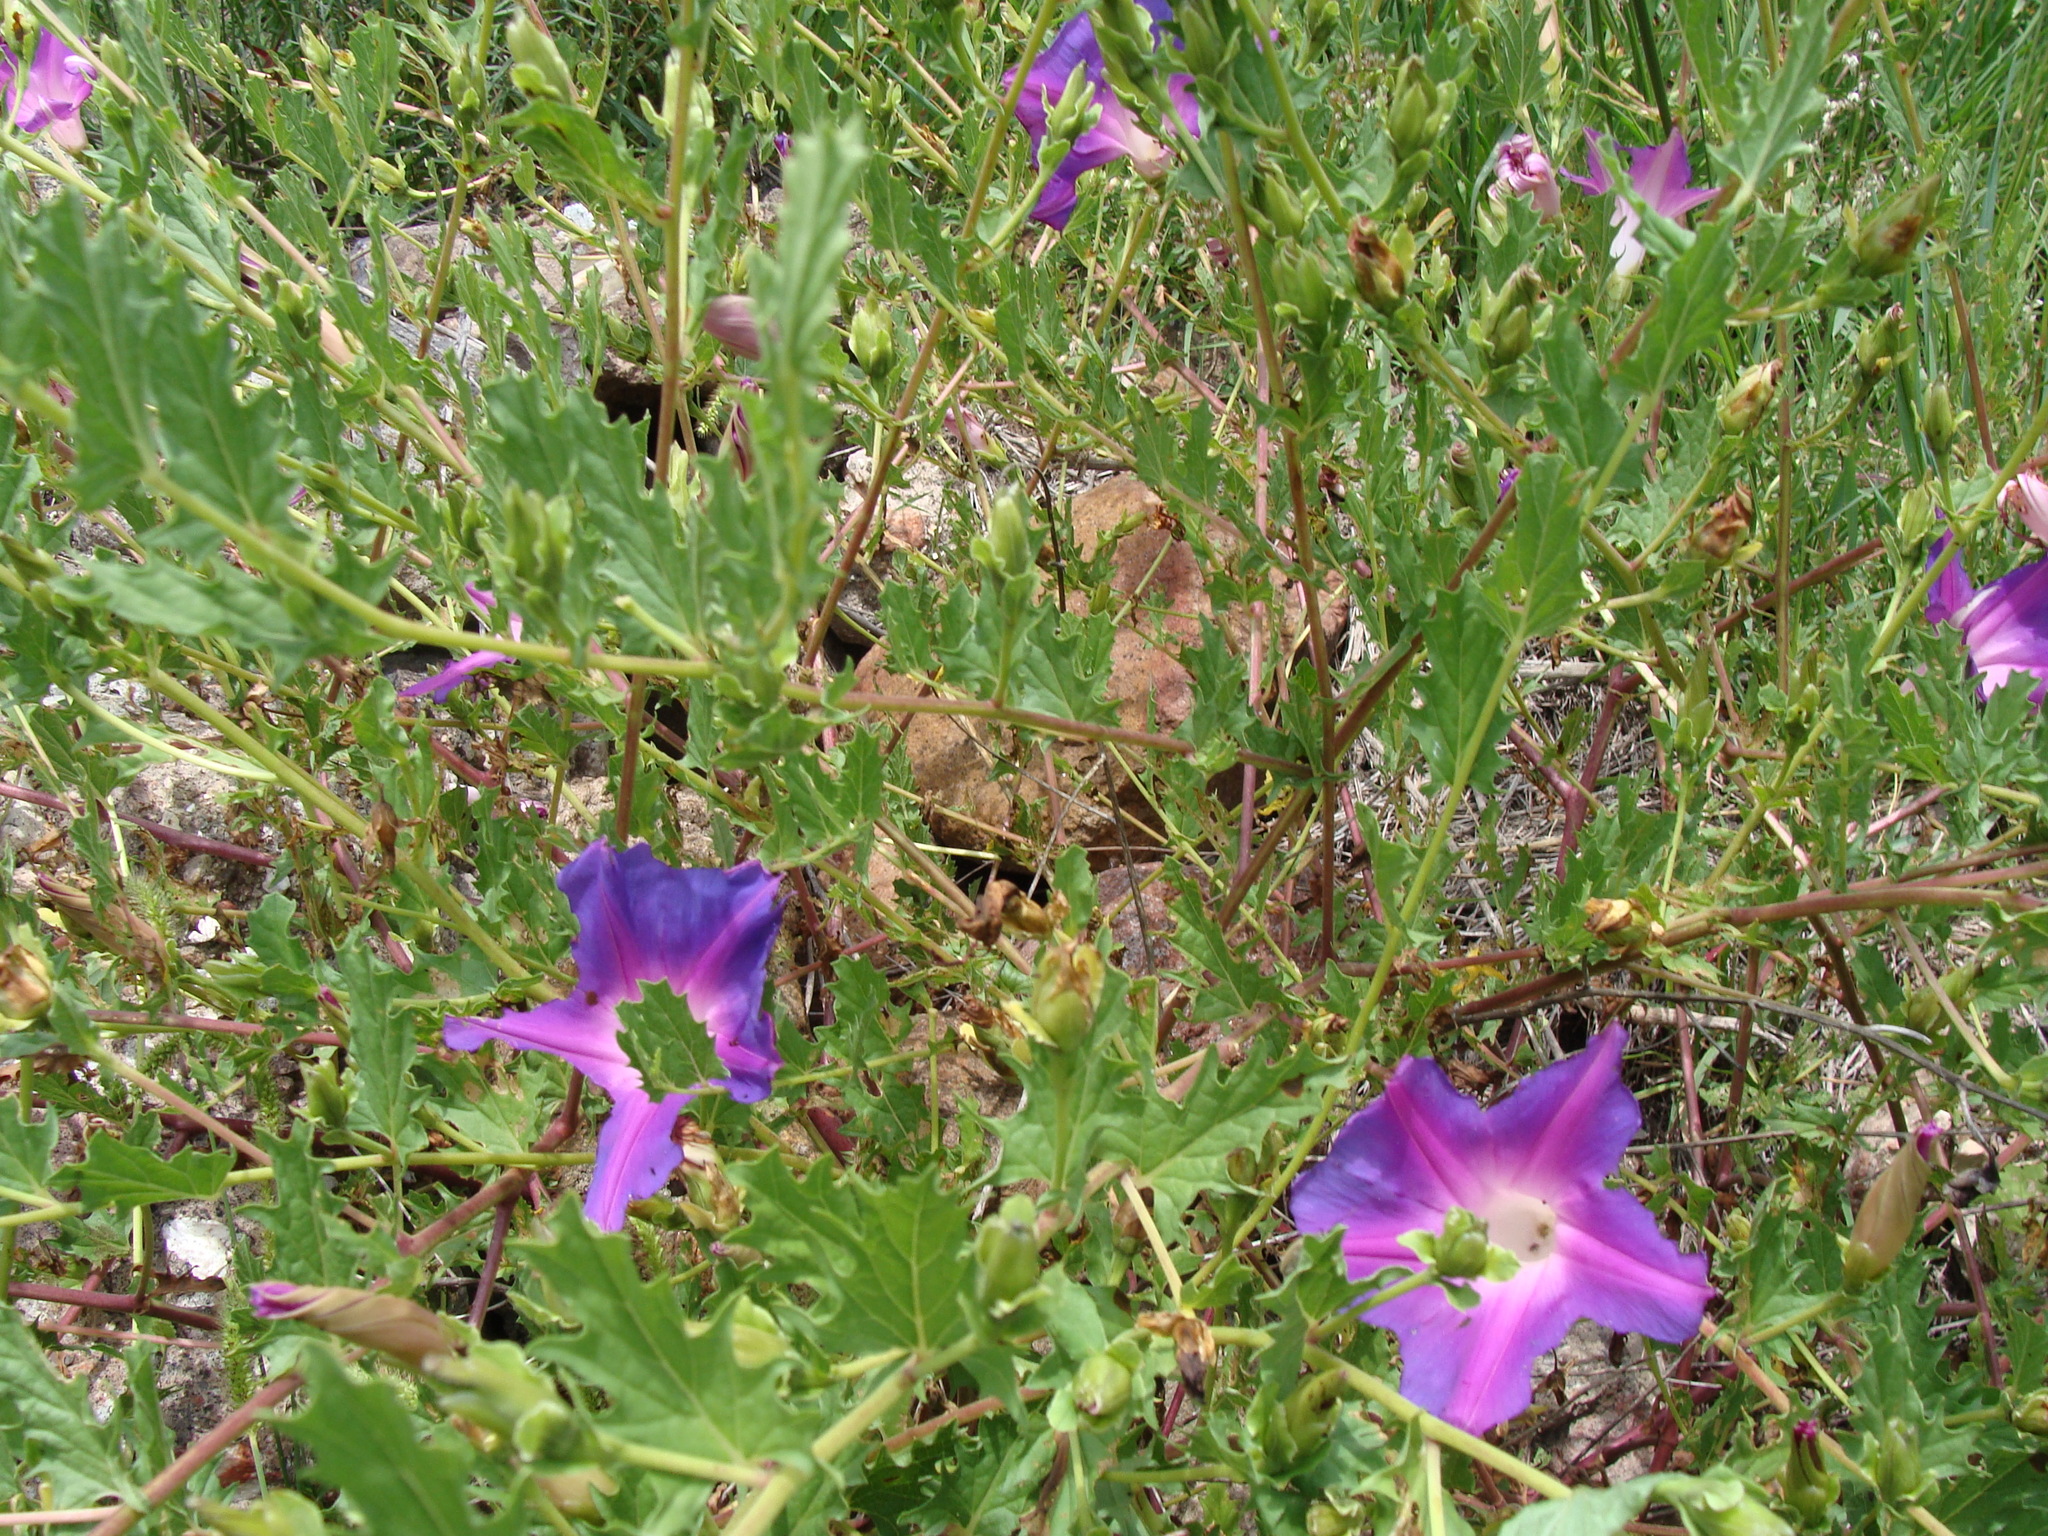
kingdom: Plantae
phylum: Tracheophyta
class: Magnoliopsida
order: Solanales
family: Convolvulaceae
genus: Ipomoea
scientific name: Ipomoea stans
